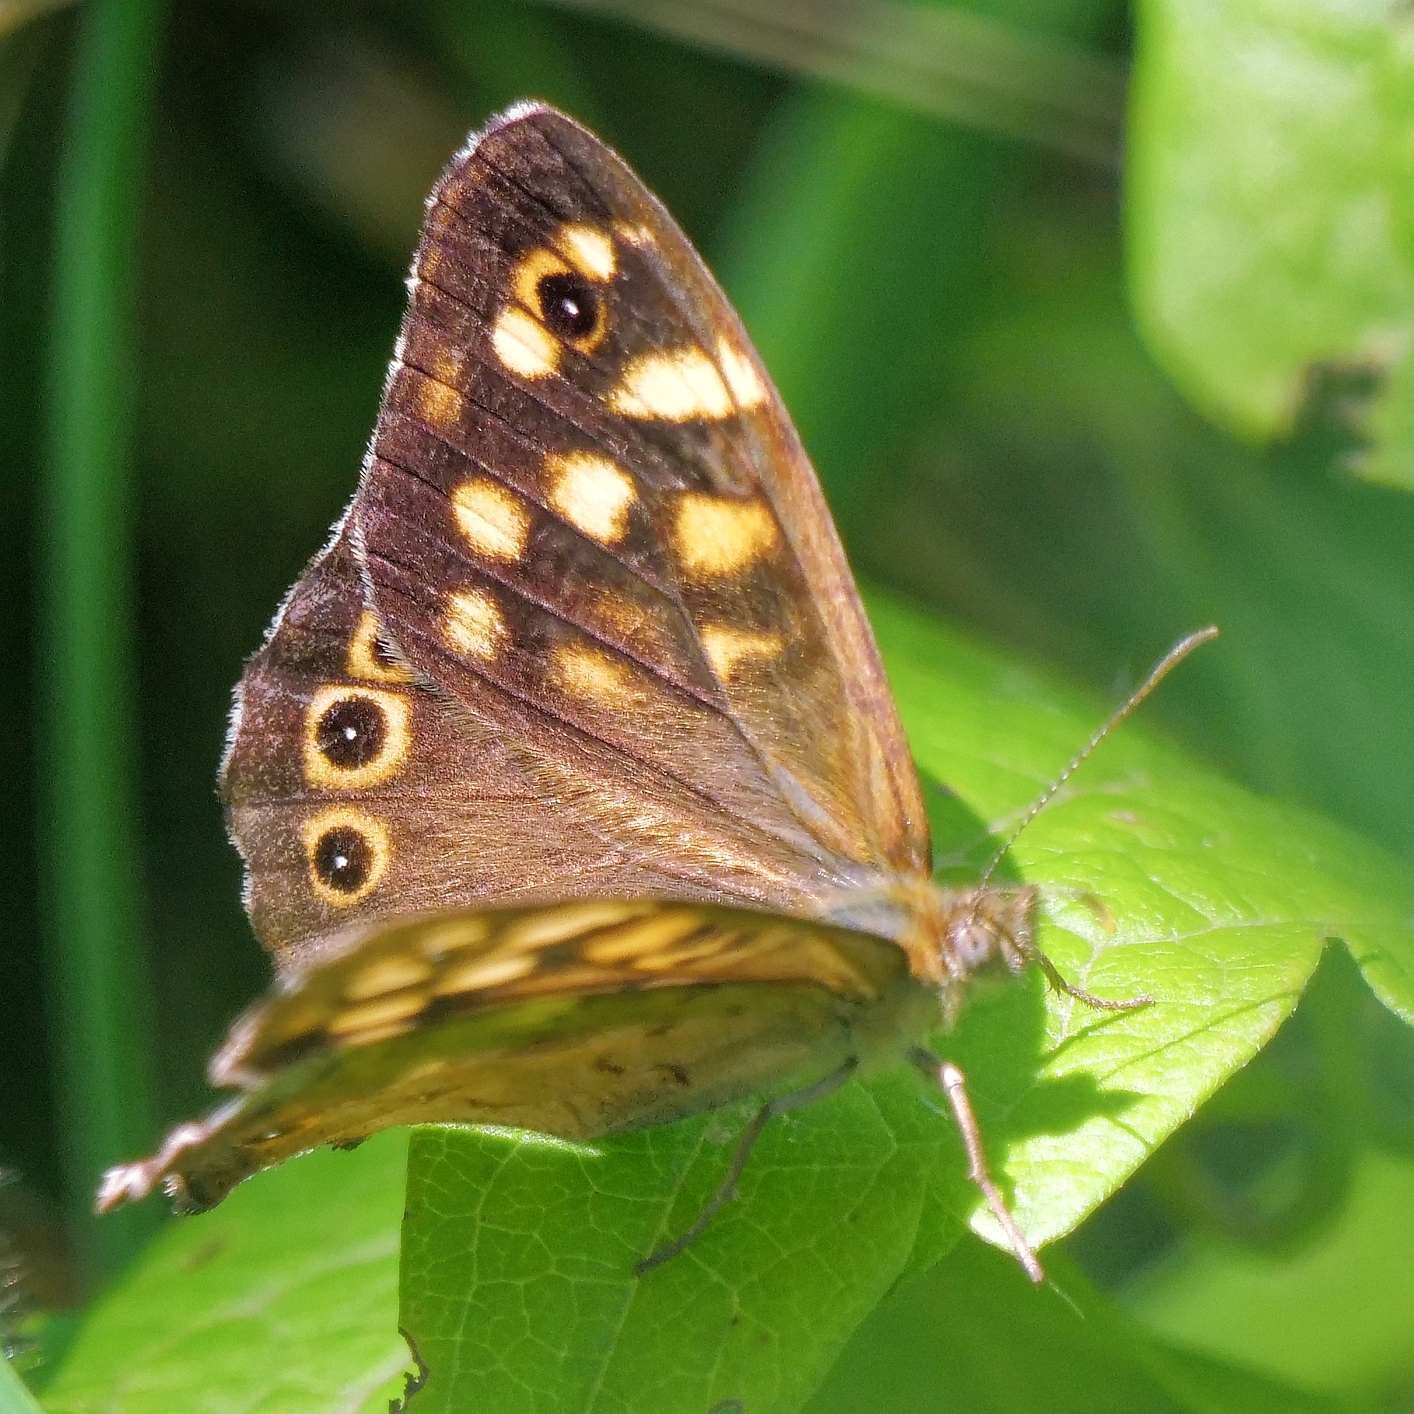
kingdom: Animalia
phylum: Arthropoda
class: Insecta
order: Lepidoptera
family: Nymphalidae
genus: Pararge
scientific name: Pararge aegeria
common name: Speckled wood
